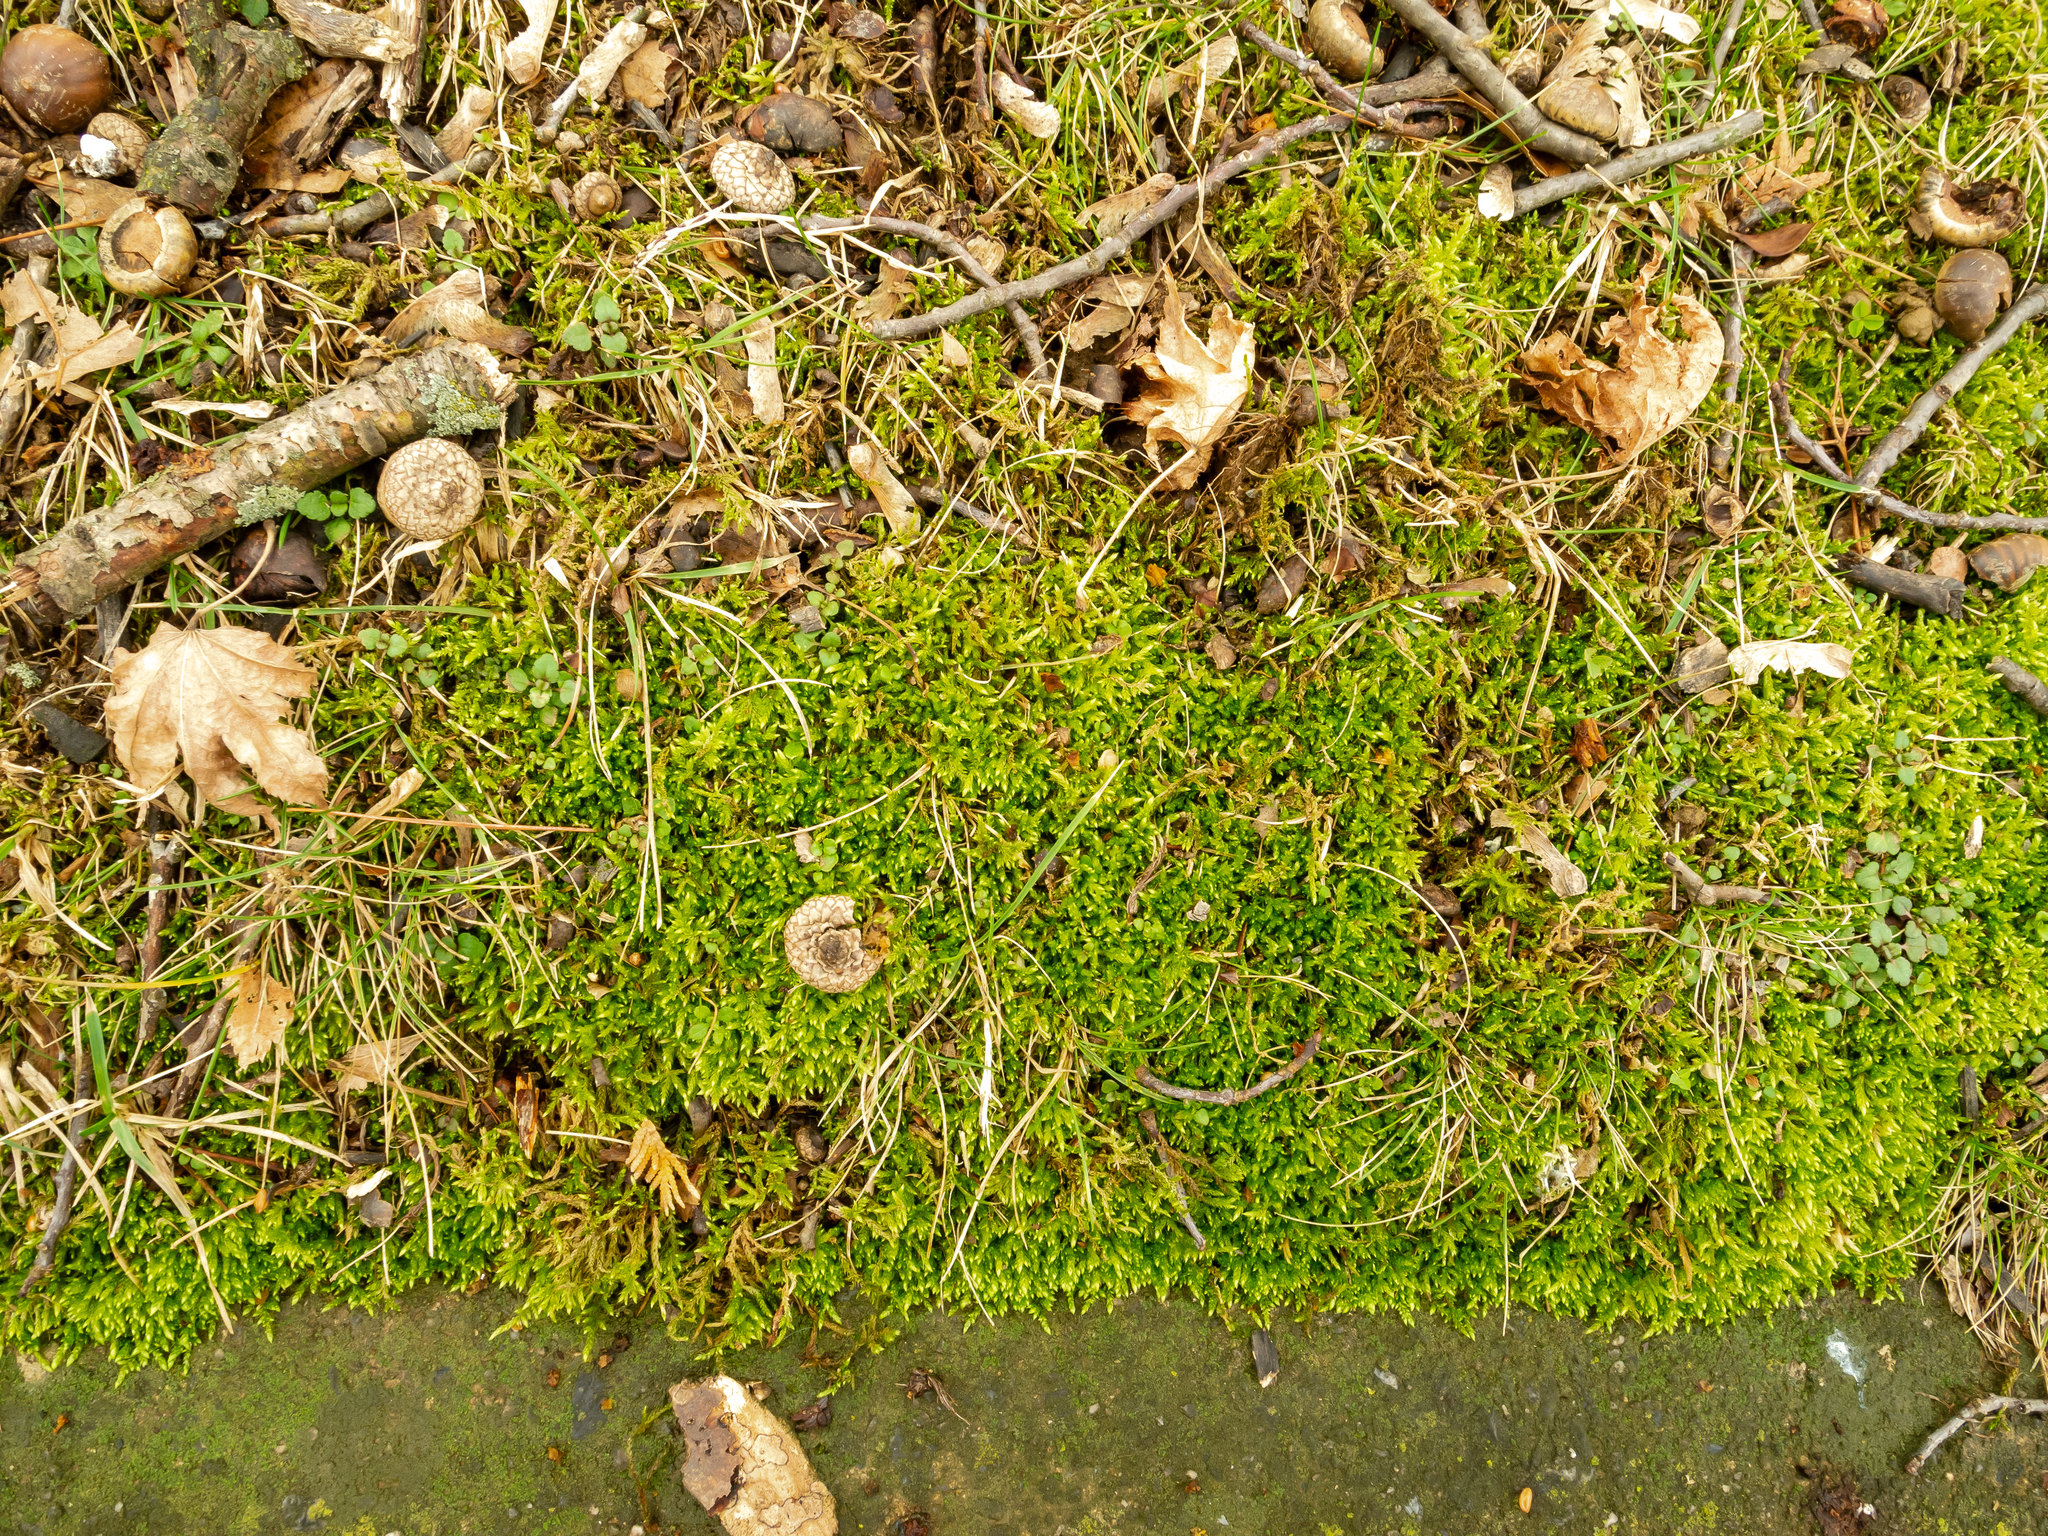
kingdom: Plantae
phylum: Bryophyta
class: Bryopsida
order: Hypnales
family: Brachytheciaceae
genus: Bryoandersonia
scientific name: Bryoandersonia illecebra
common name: Spoon-leaved moss
